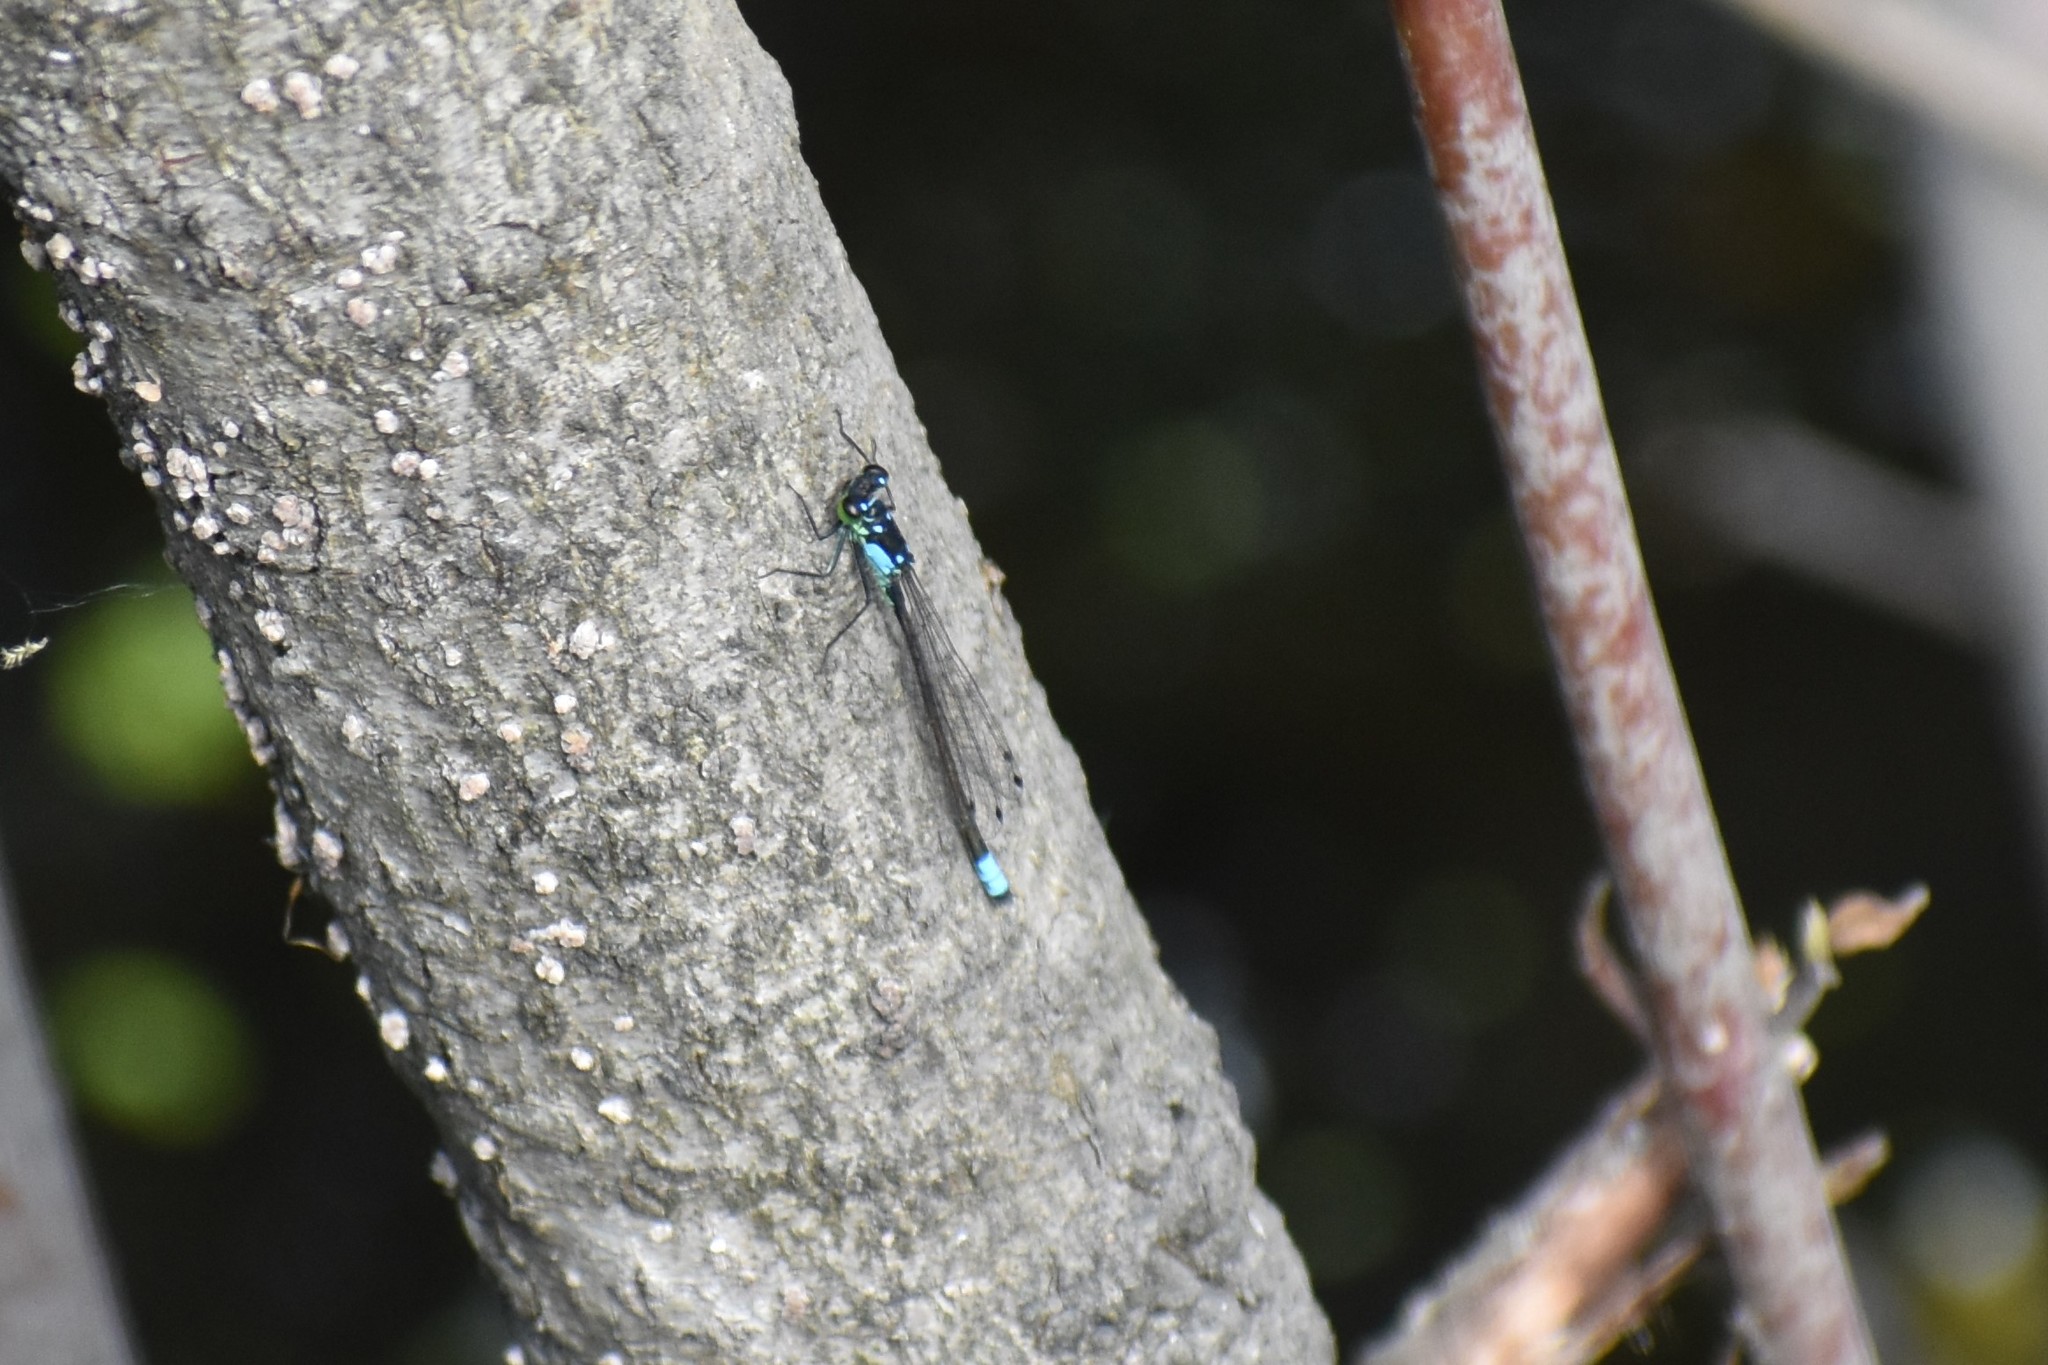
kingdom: Animalia
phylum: Arthropoda
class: Insecta
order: Odonata
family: Coenagrionidae
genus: Ischnura
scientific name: Ischnura cervula
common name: Pacific forktail
